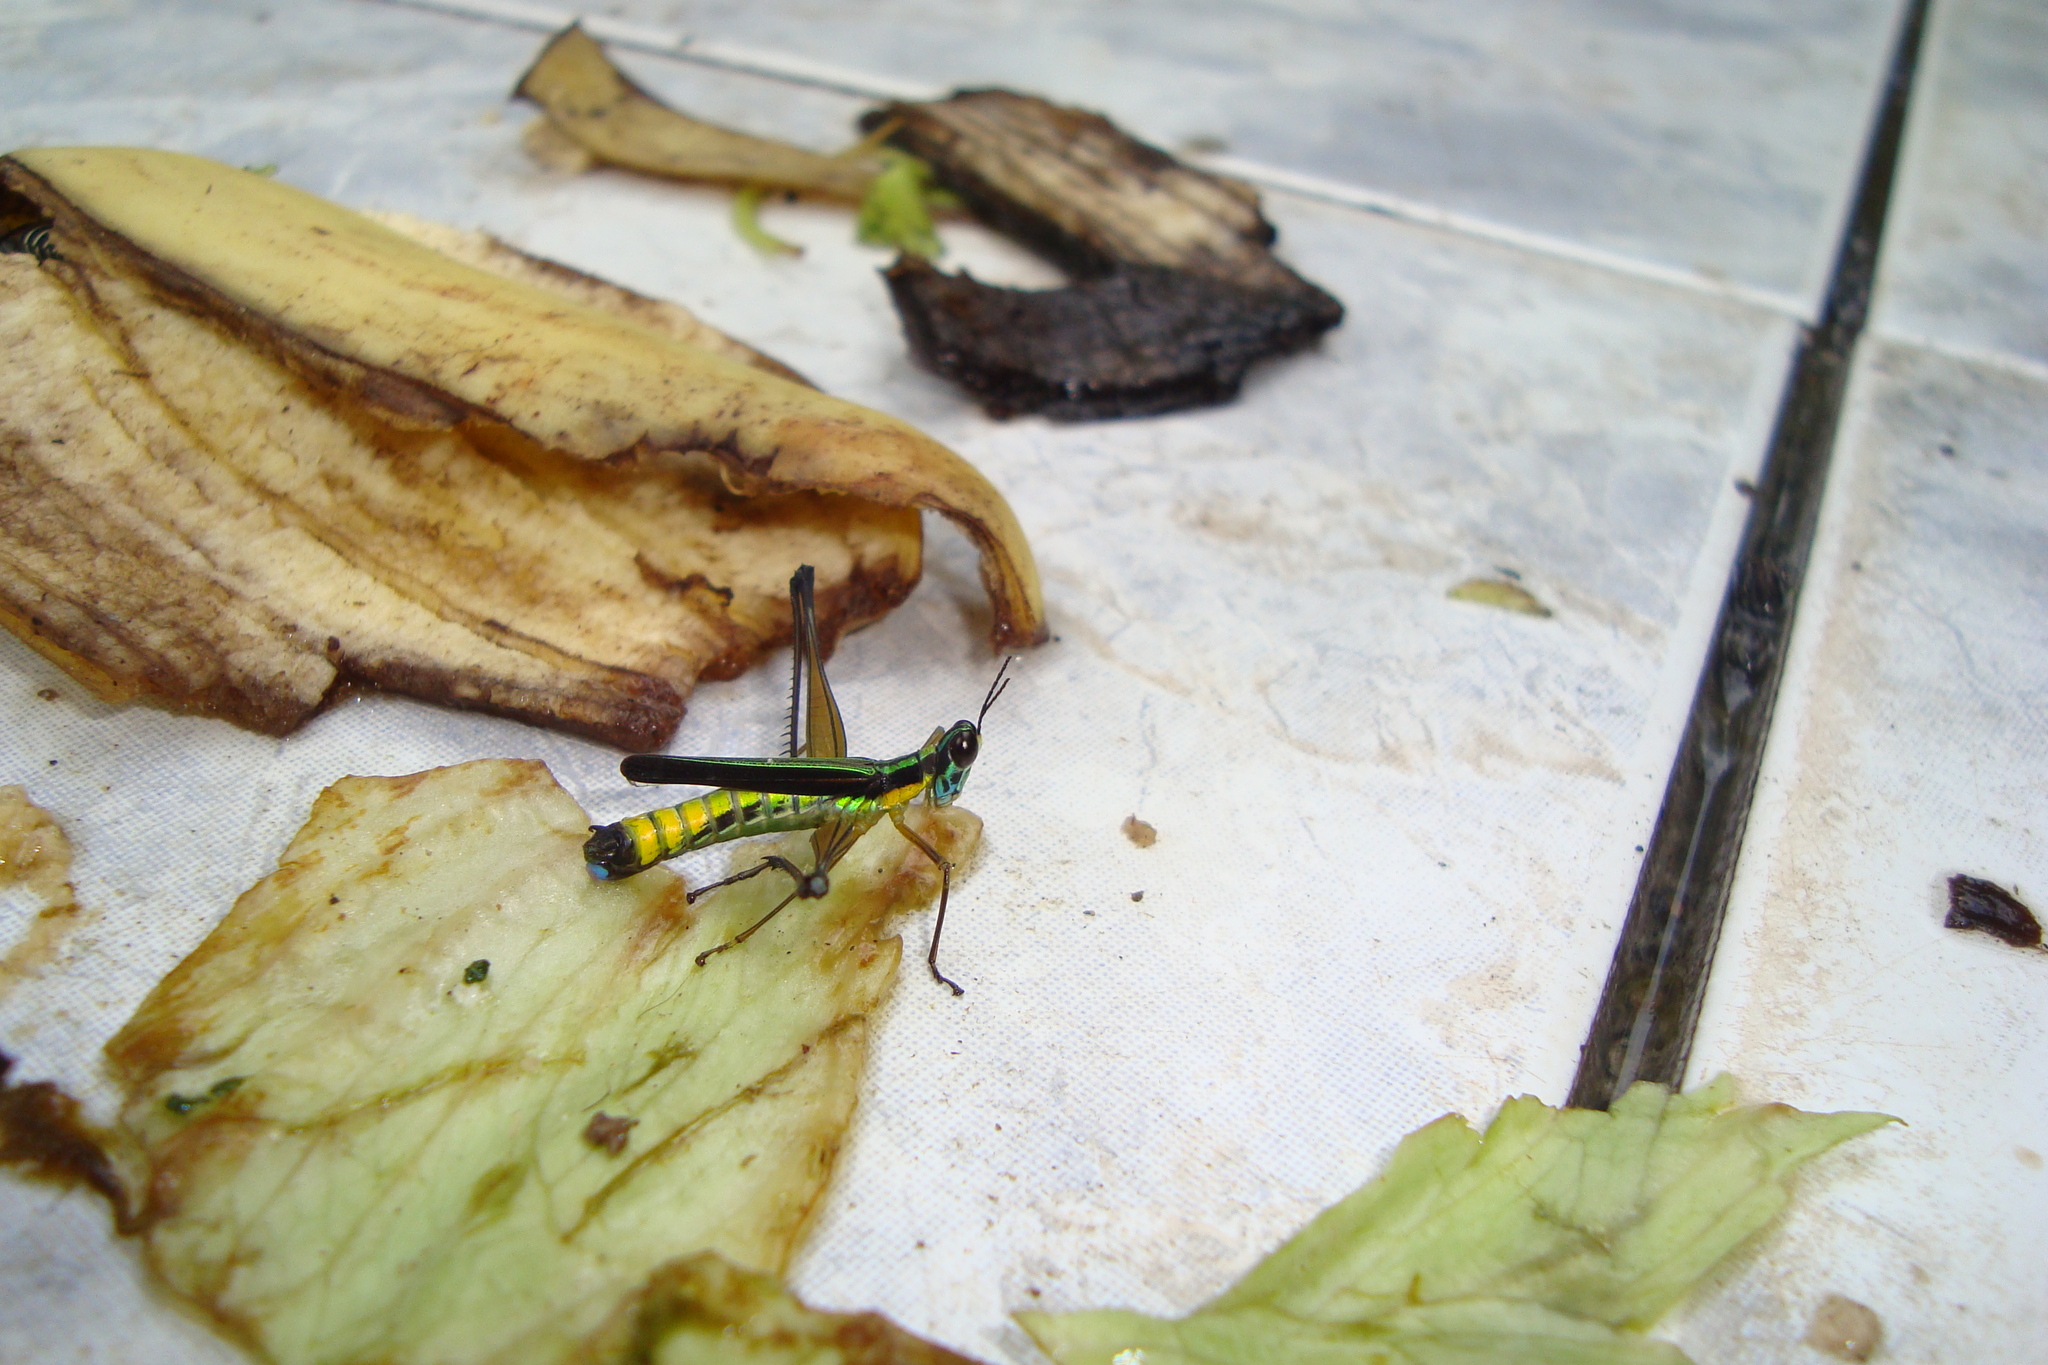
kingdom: Animalia
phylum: Arthropoda
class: Insecta
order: Orthoptera
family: Eumastacidae
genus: Paramastax
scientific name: Paramastax flavovittata
